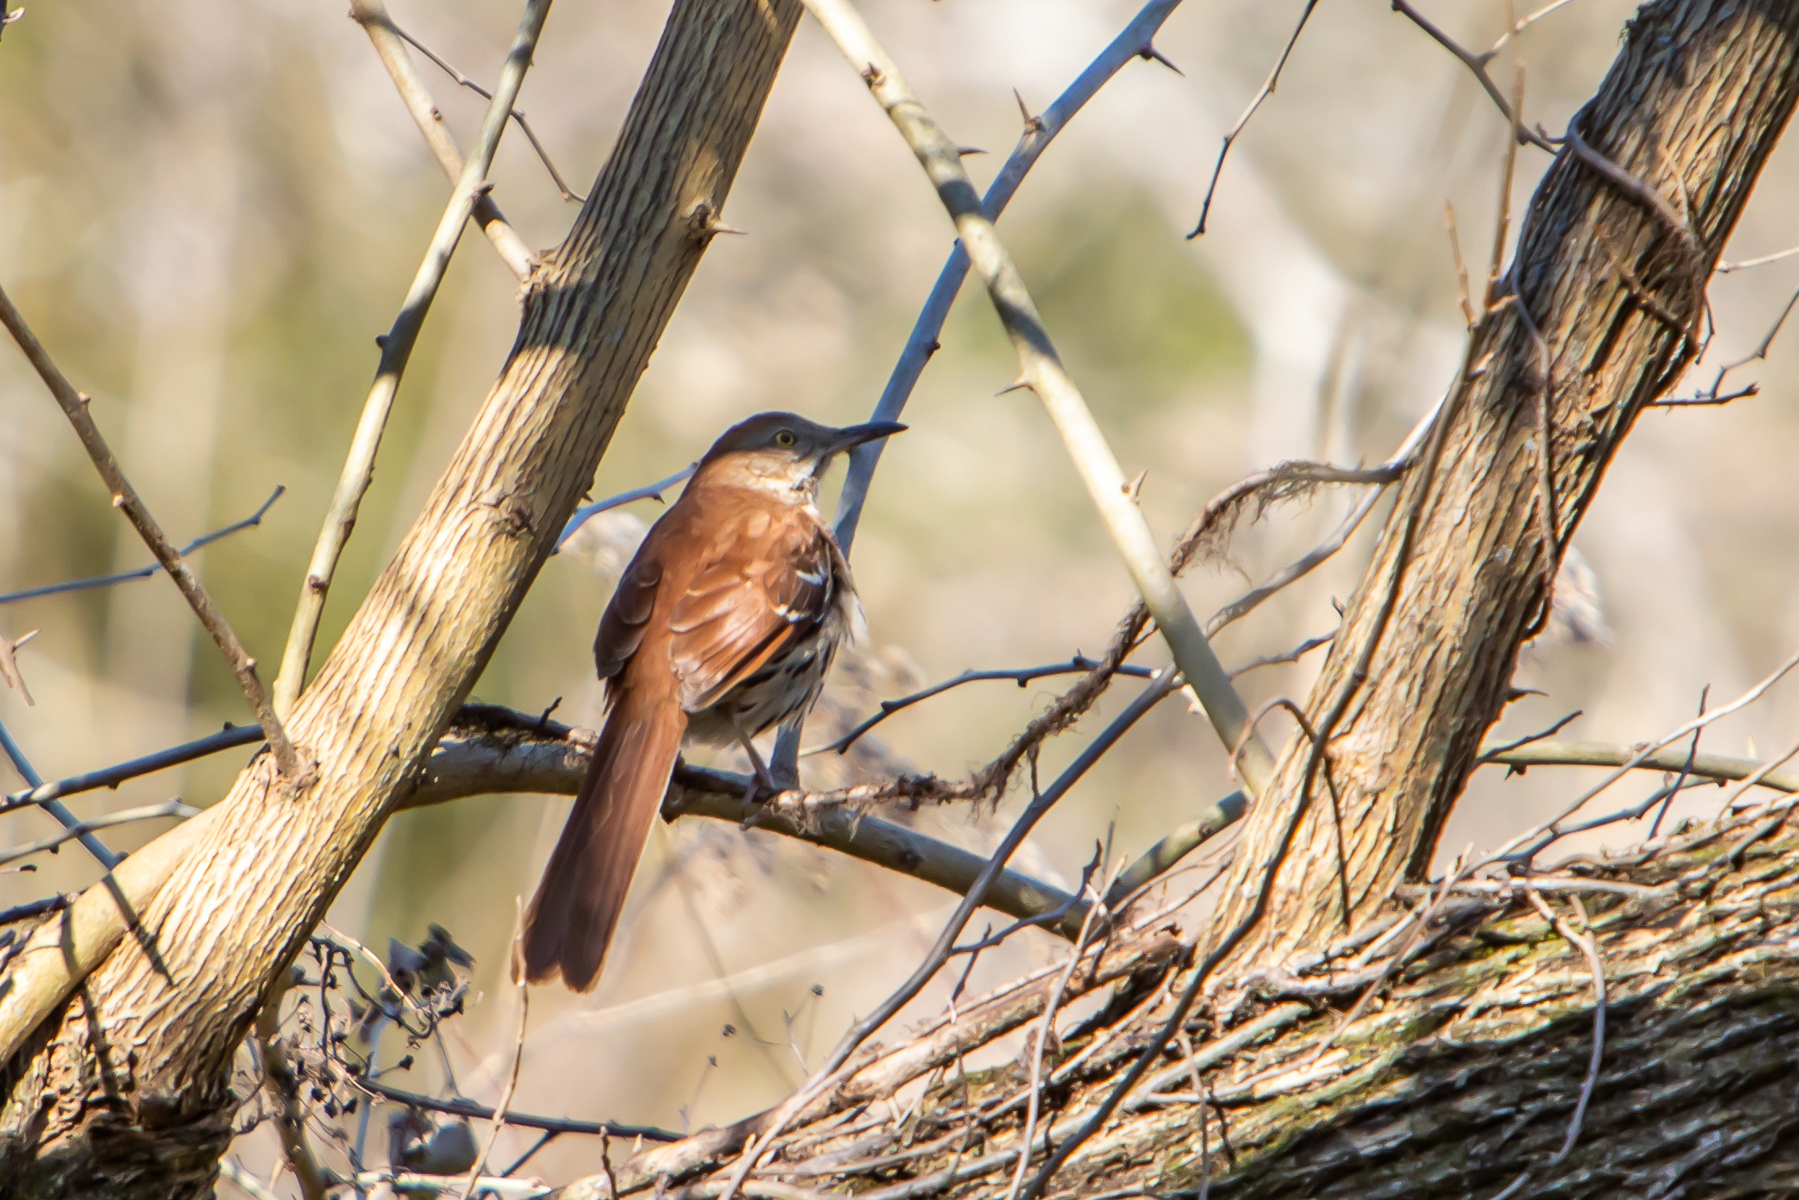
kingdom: Animalia
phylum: Chordata
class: Aves
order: Passeriformes
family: Mimidae
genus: Toxostoma
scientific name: Toxostoma rufum
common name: Brown thrasher
